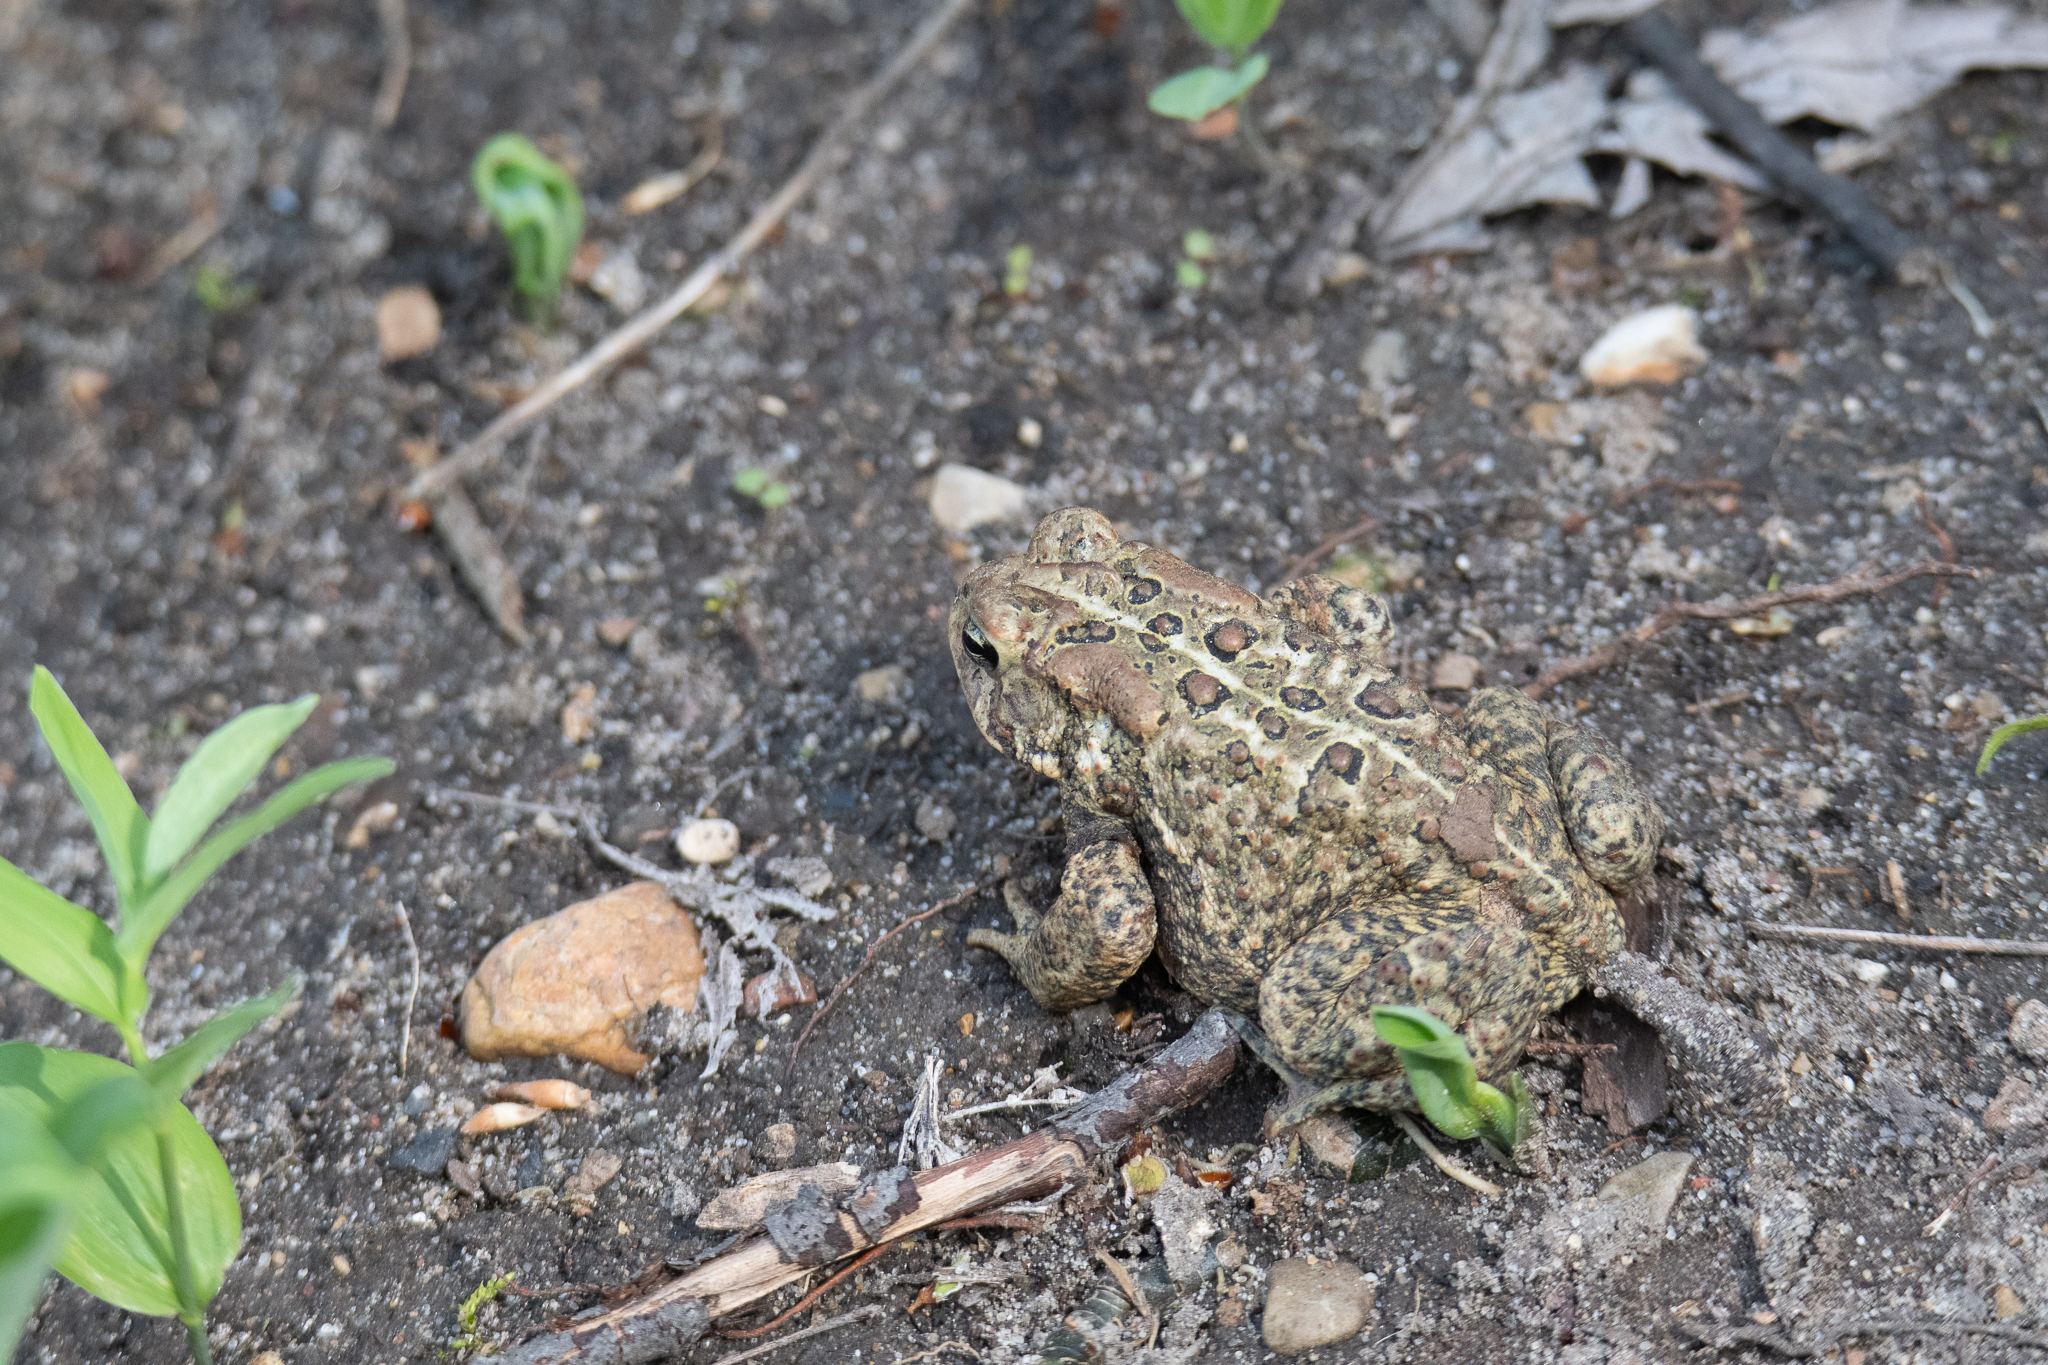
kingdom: Animalia
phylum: Chordata
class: Amphibia
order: Anura
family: Bufonidae
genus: Anaxyrus
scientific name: Anaxyrus americanus
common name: American toad
